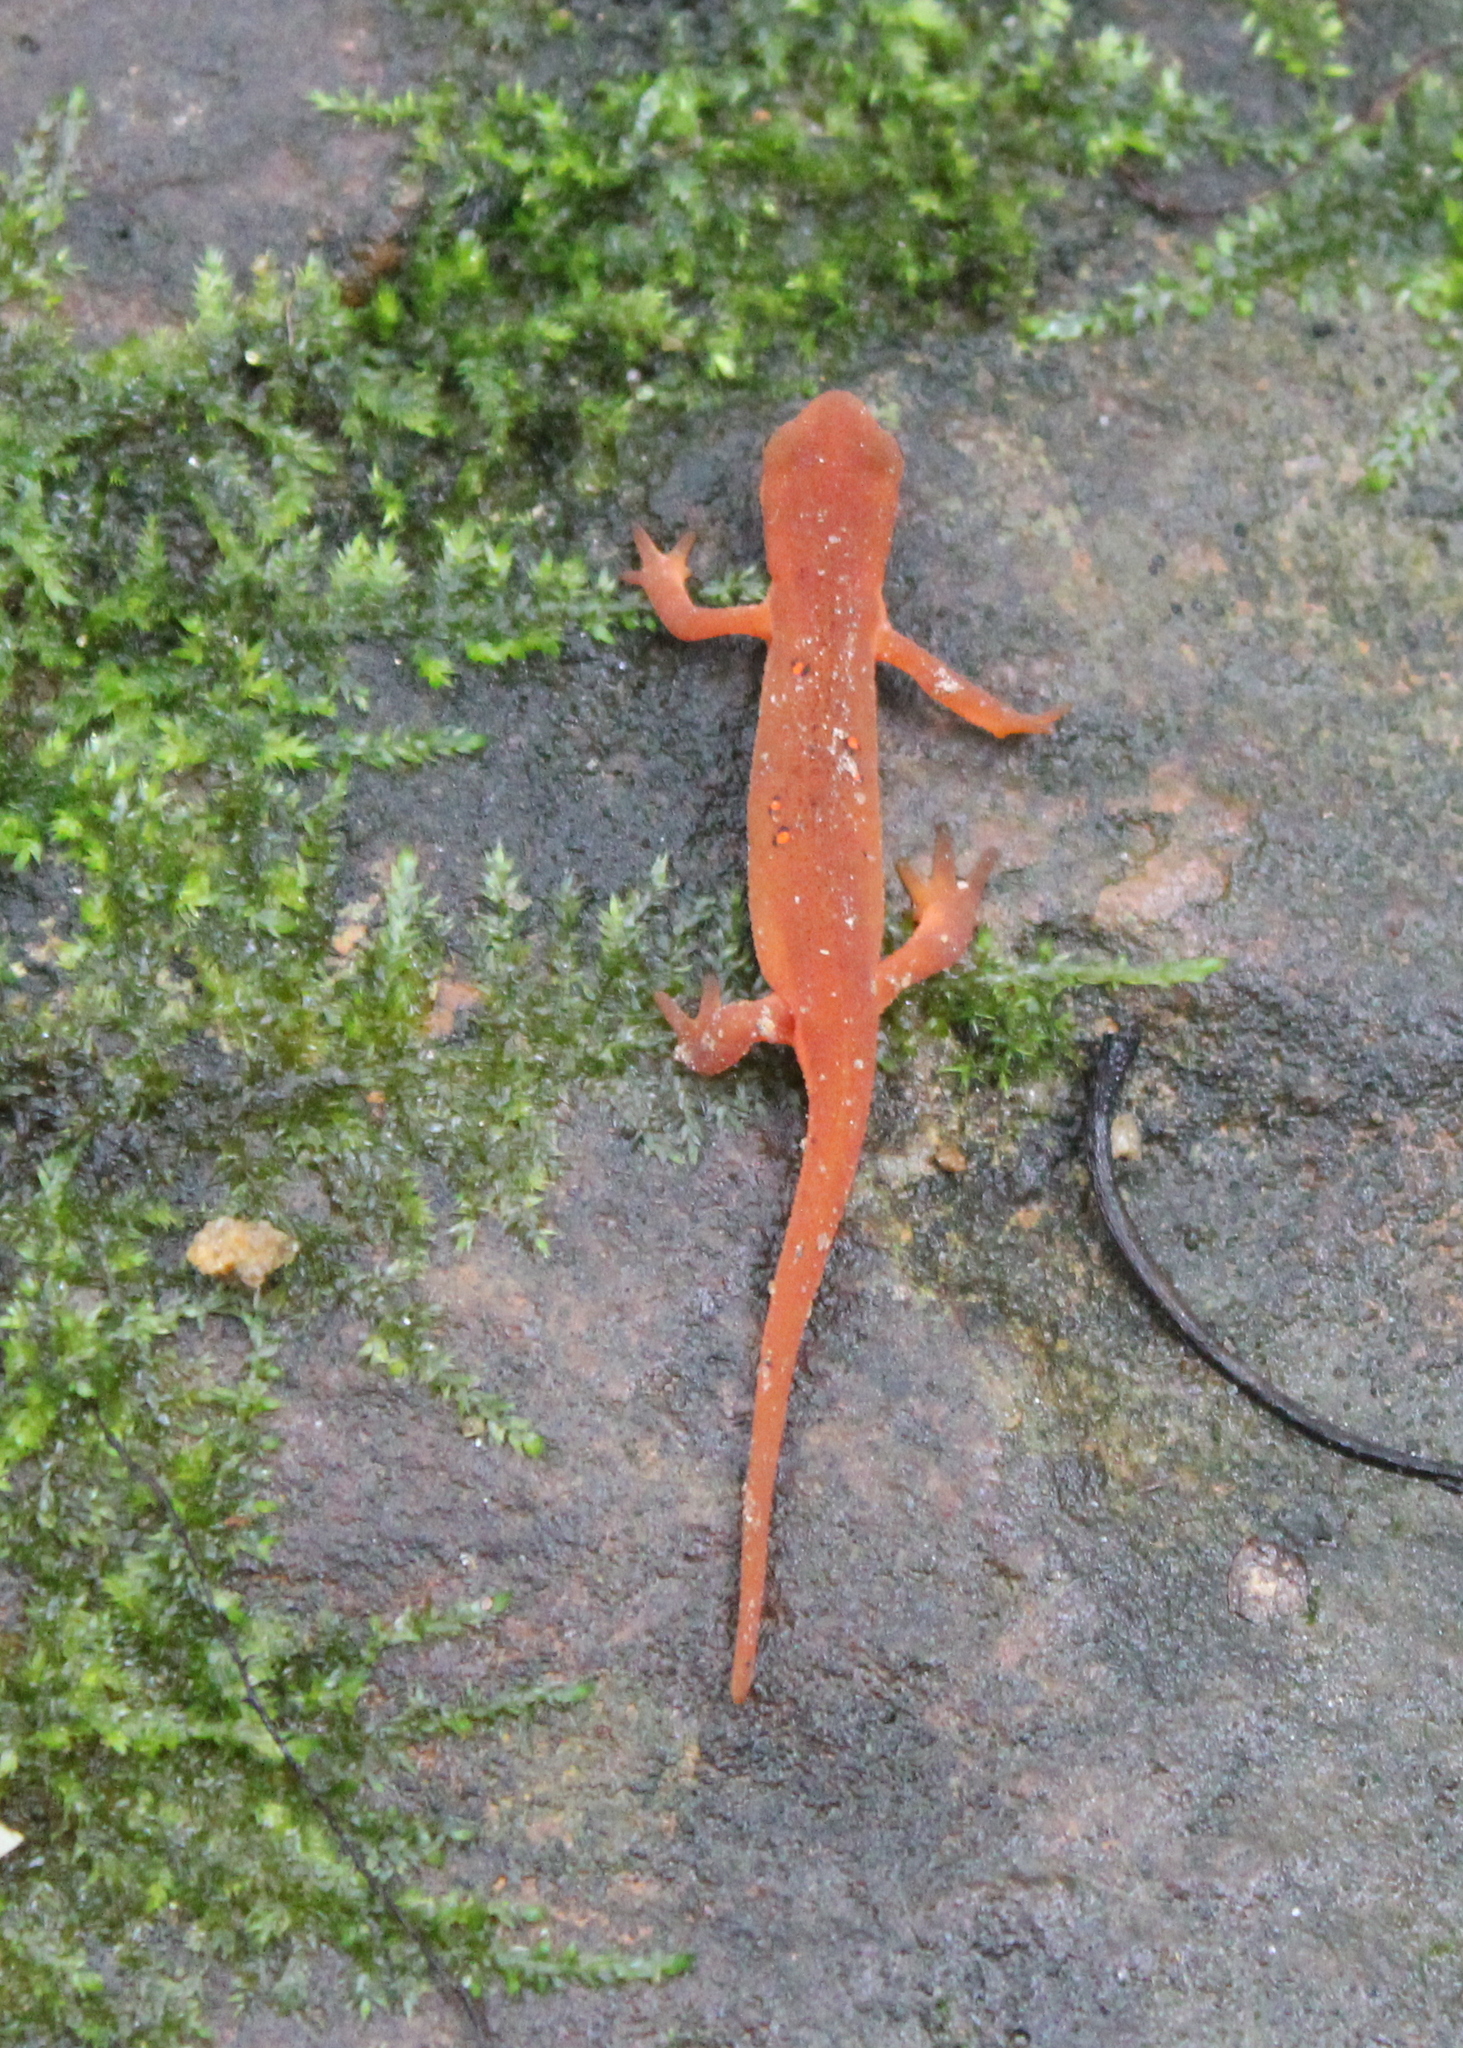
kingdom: Animalia
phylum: Chordata
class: Amphibia
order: Caudata
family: Salamandridae
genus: Notophthalmus
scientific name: Notophthalmus viridescens
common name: Eastern newt
